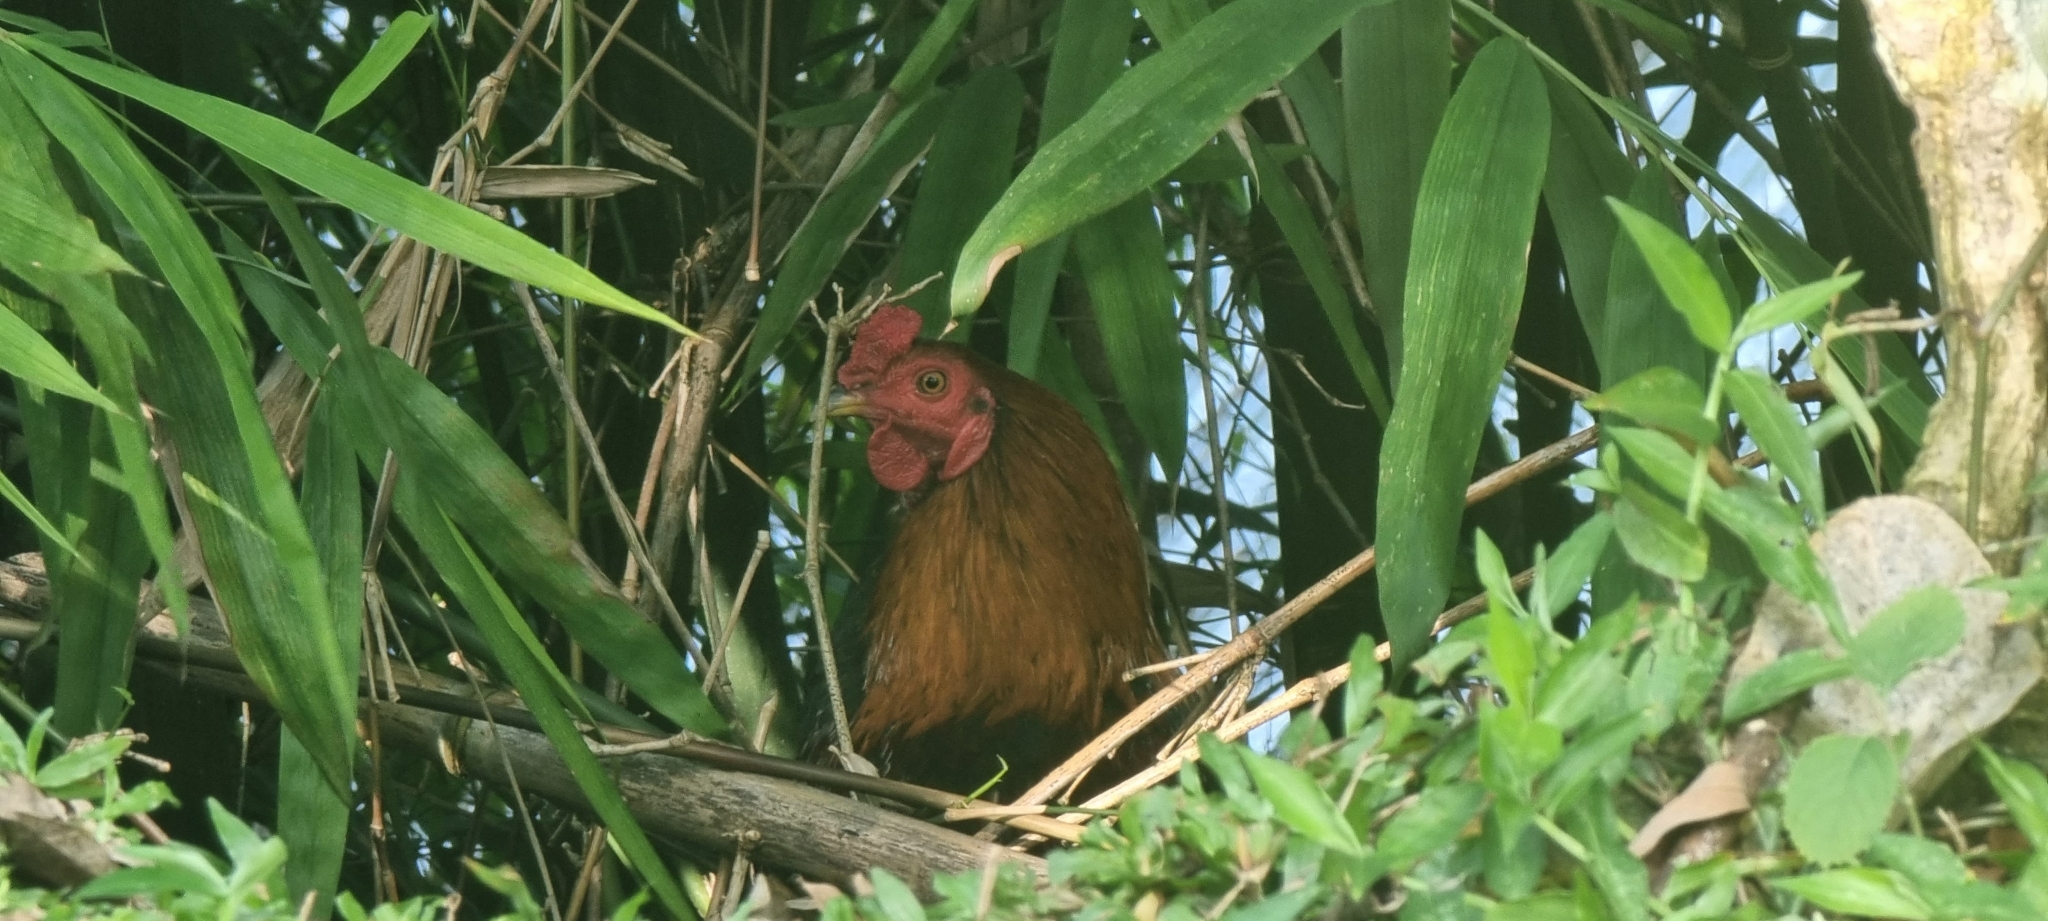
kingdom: Animalia
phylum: Chordata
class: Aves
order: Galliformes
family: Phasianidae
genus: Gallus
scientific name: Gallus gallus
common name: Red junglefowl
